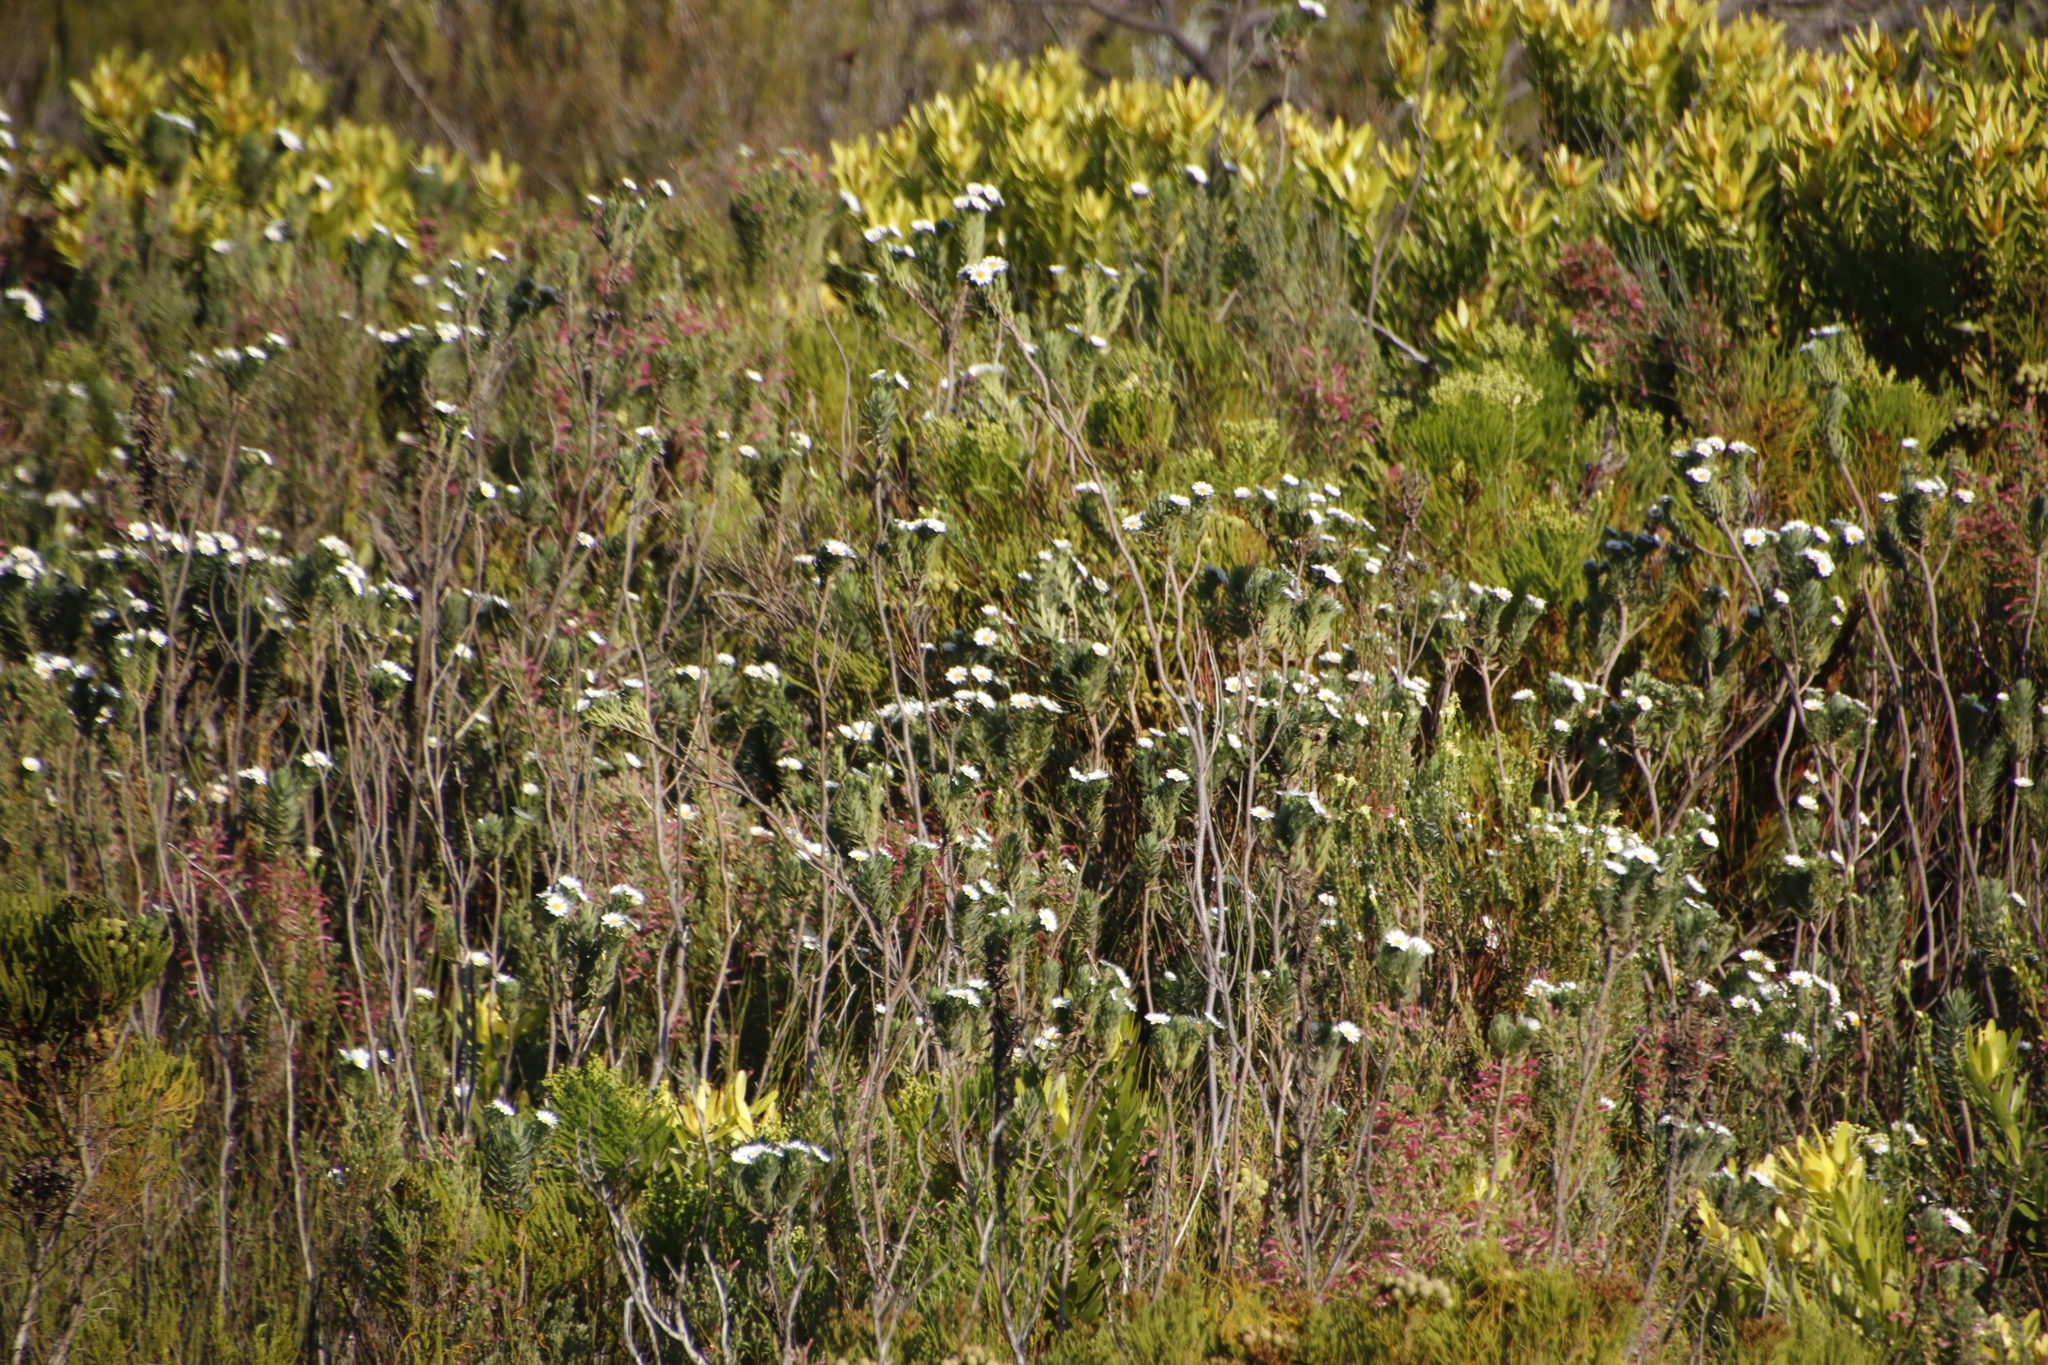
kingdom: Plantae
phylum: Tracheophyta
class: Magnoliopsida
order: Asterales
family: Asteraceae
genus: Osmitopsis
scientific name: Osmitopsis asteriscoides
